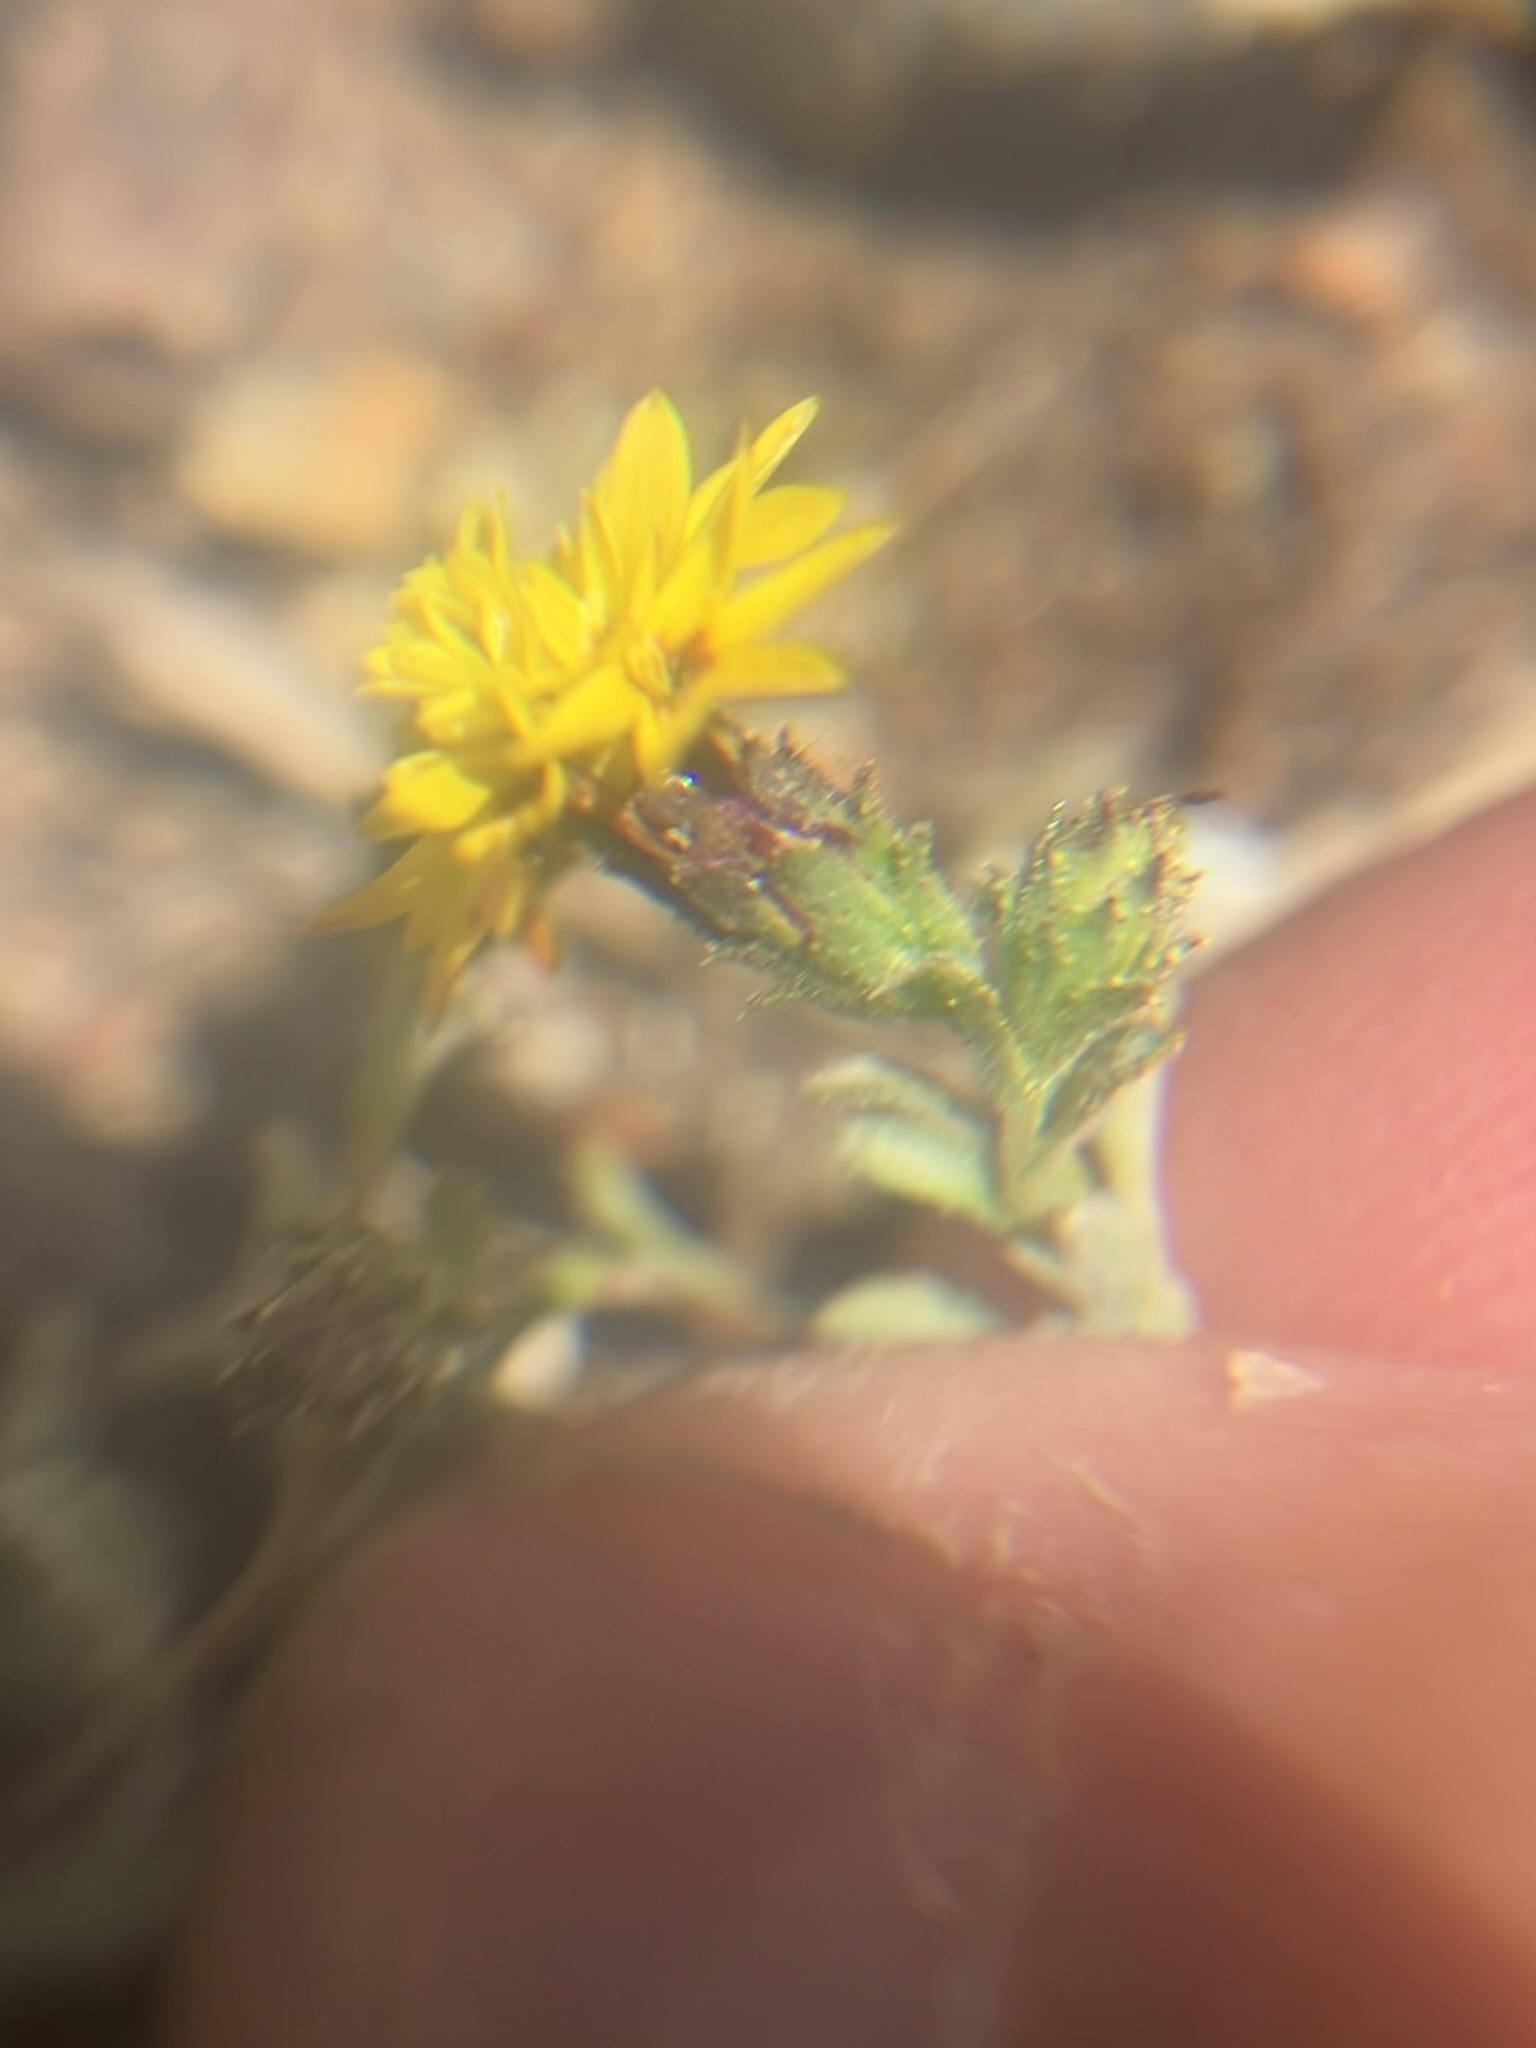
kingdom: Plantae
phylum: Tracheophyta
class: Magnoliopsida
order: Asterales
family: Asteraceae
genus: Lessingia
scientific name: Lessingia tenuis
